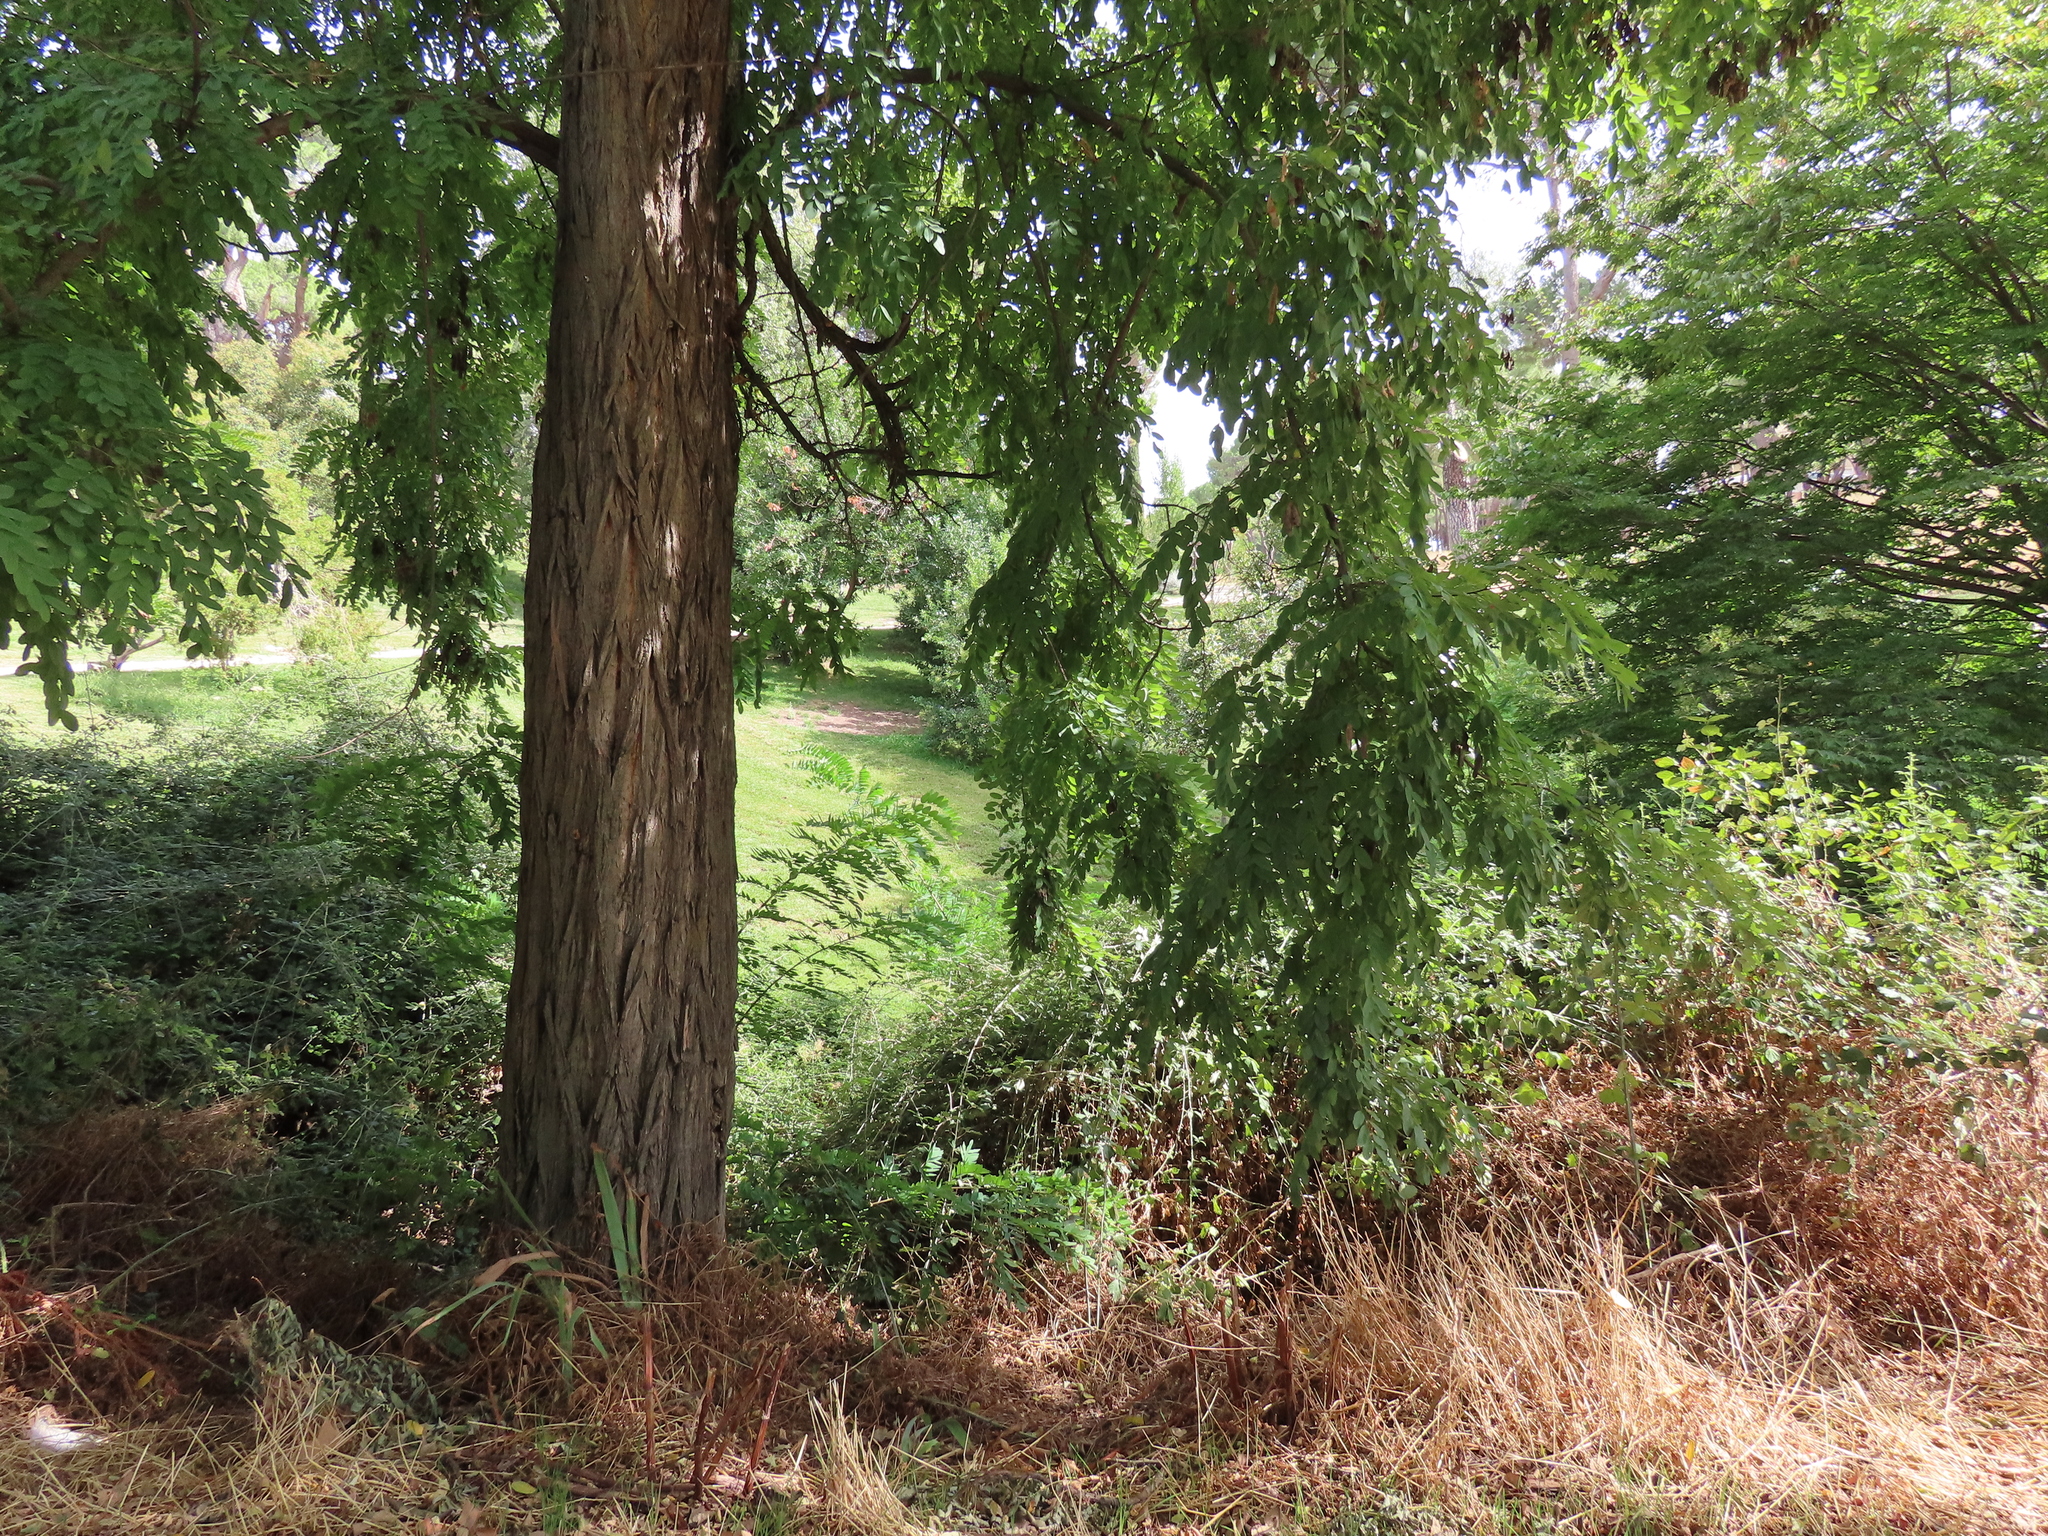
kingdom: Plantae
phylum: Tracheophyta
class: Magnoliopsida
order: Fabales
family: Fabaceae
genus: Robinia
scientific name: Robinia pseudoacacia
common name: Black locust
